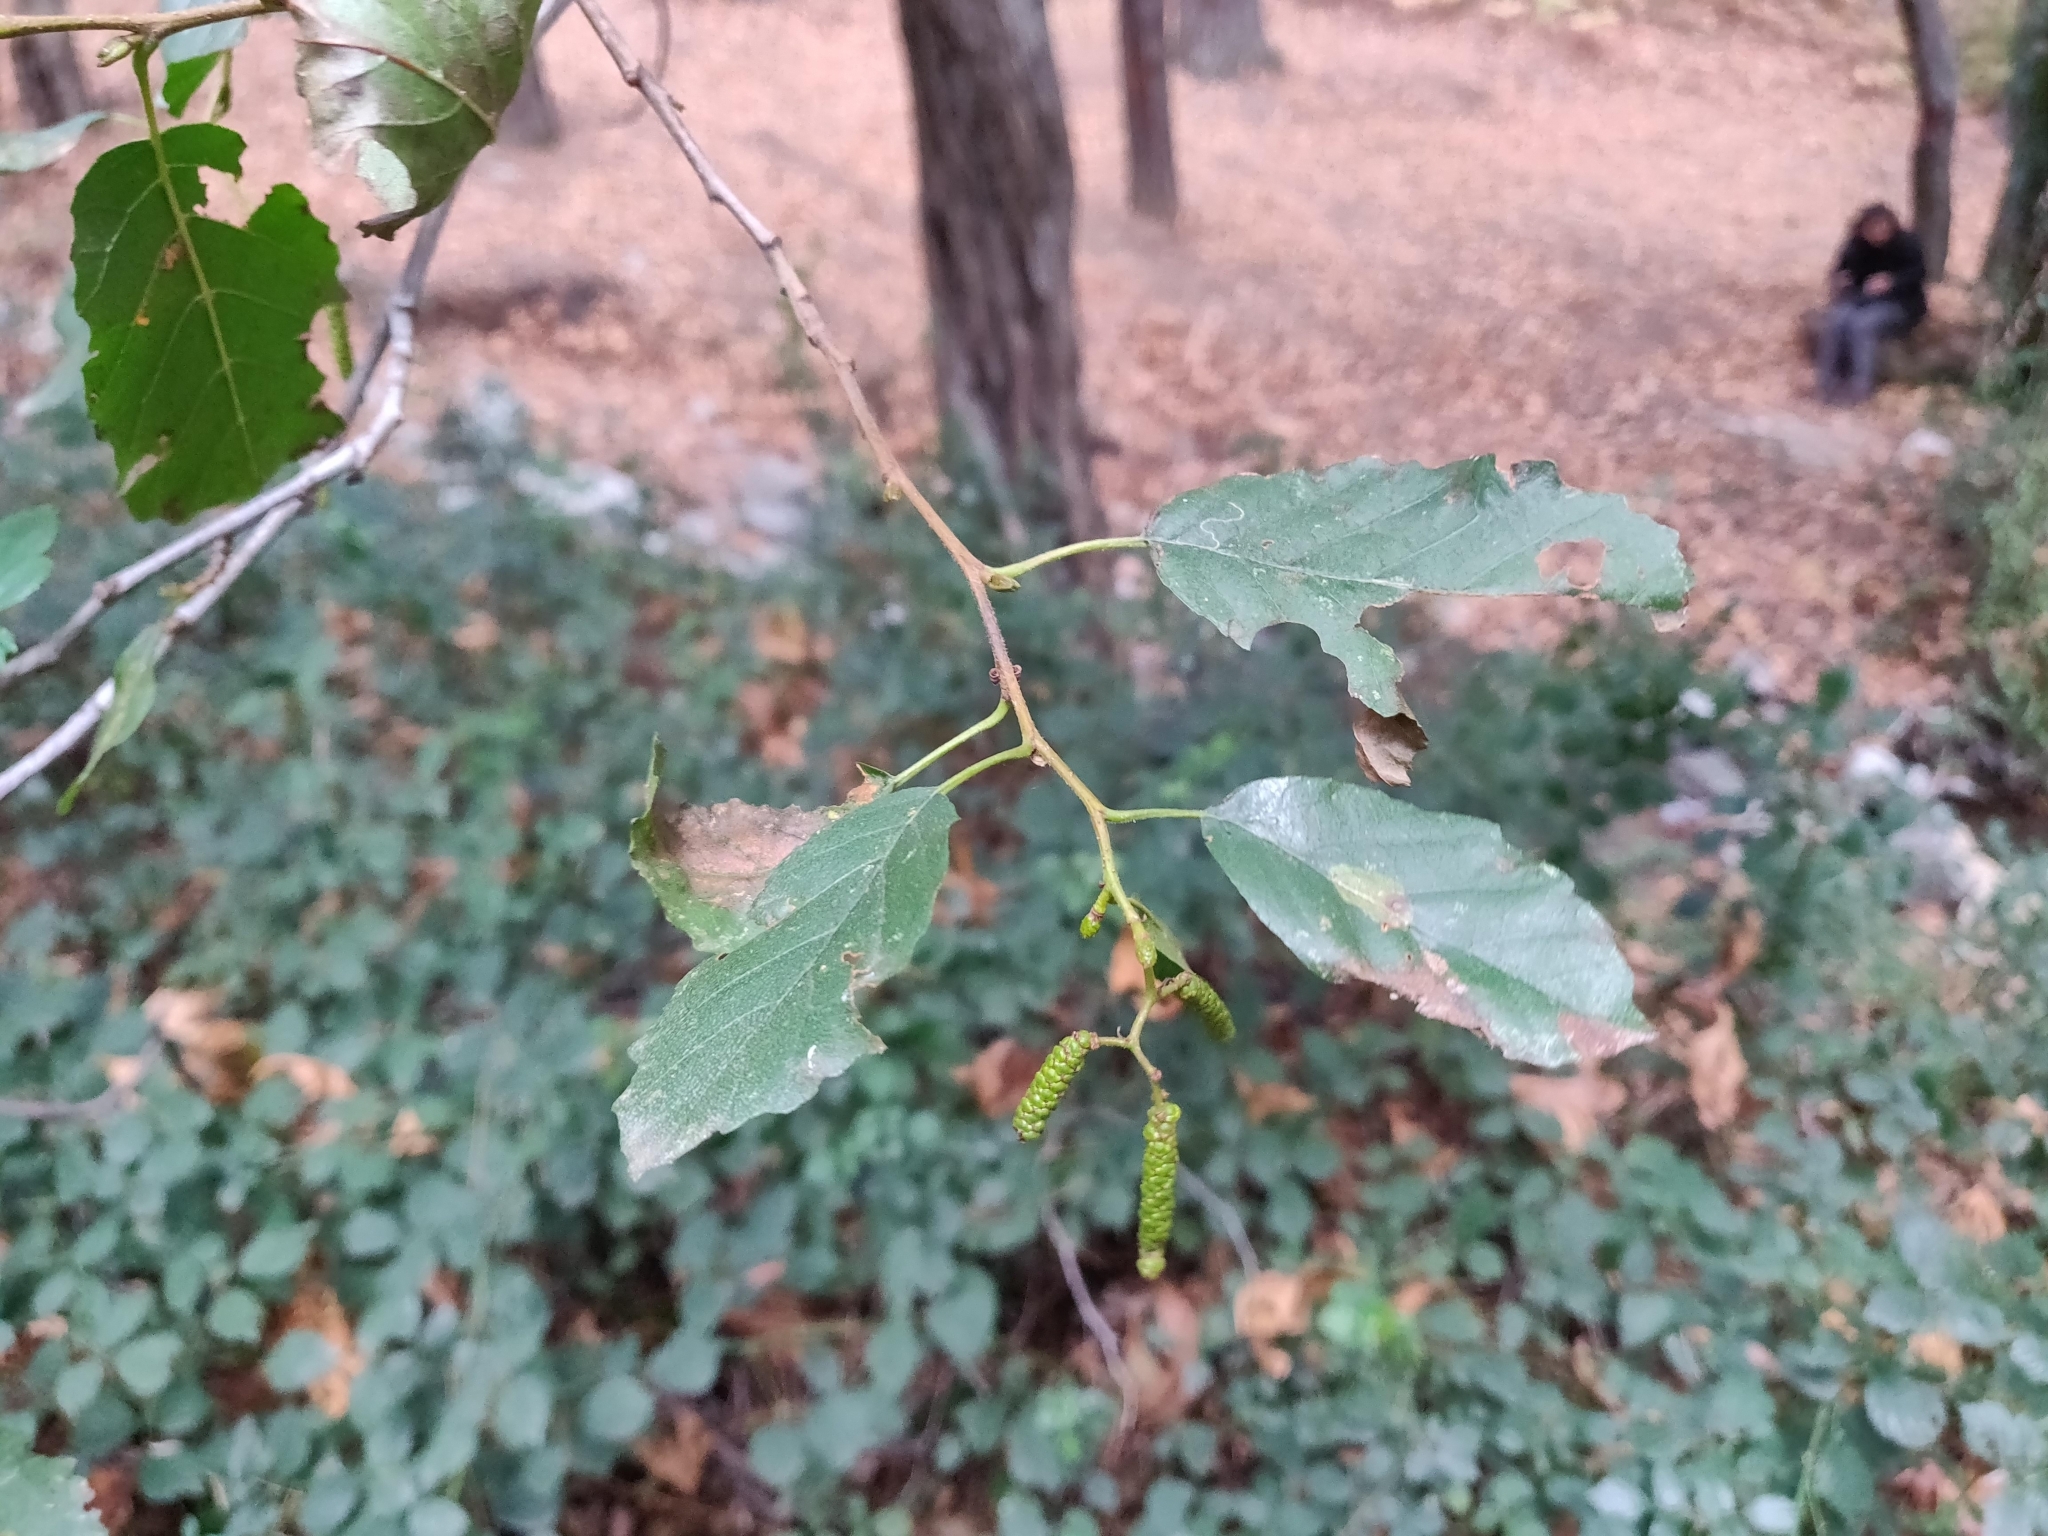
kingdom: Plantae
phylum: Tracheophyta
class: Magnoliopsida
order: Fagales
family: Betulaceae
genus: Alnus
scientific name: Alnus orientalis
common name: Oriental alder
